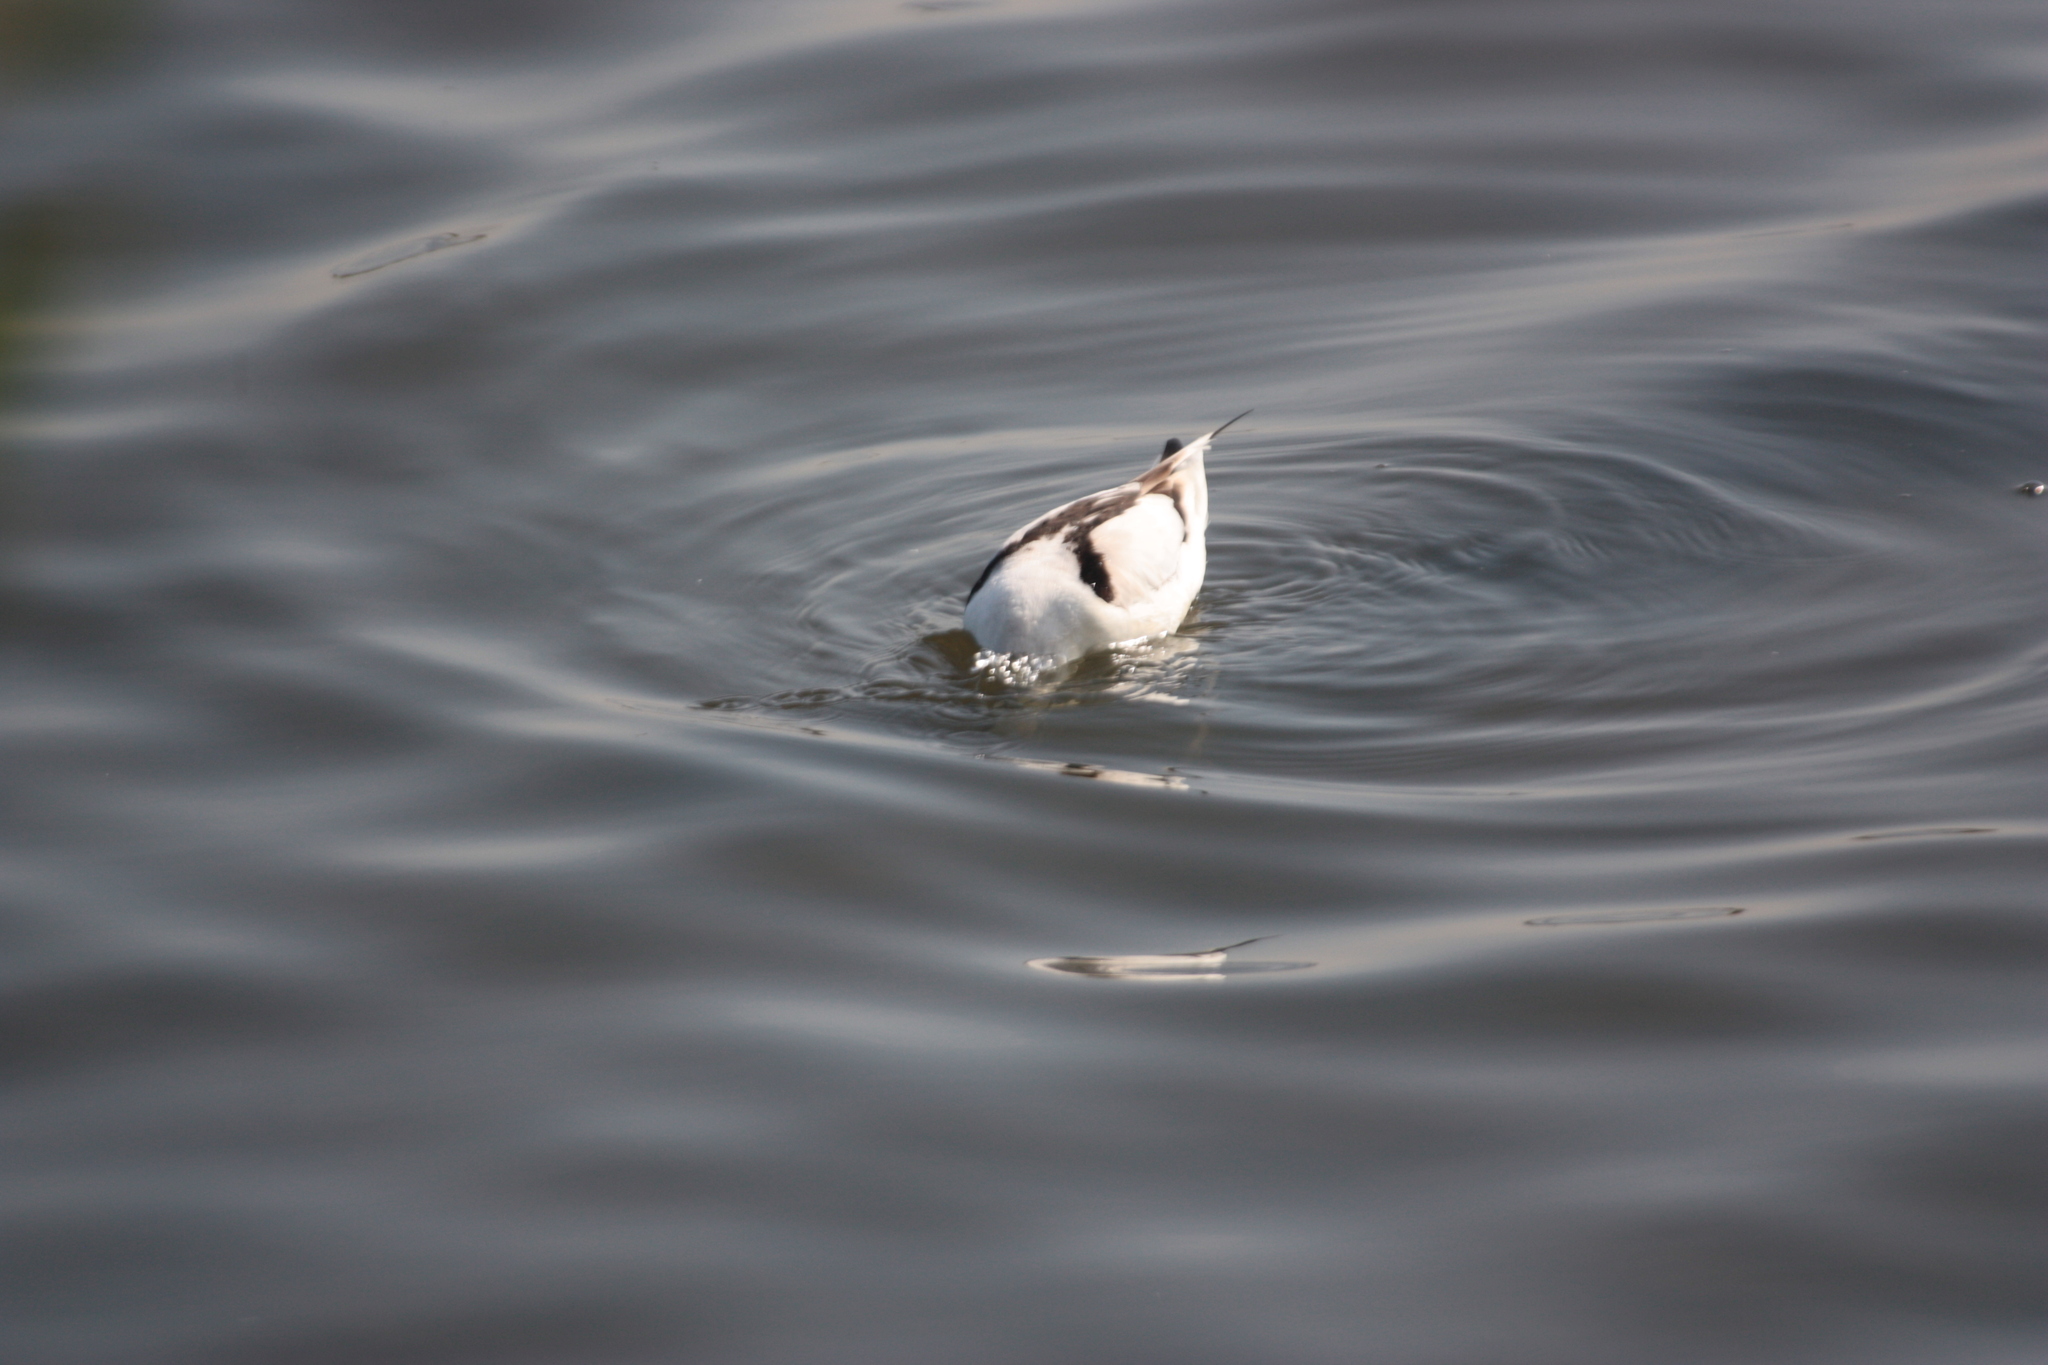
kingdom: Animalia
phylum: Chordata
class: Aves
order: Charadriiformes
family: Recurvirostridae
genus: Recurvirostra
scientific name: Recurvirostra avosetta
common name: Pied avocet
